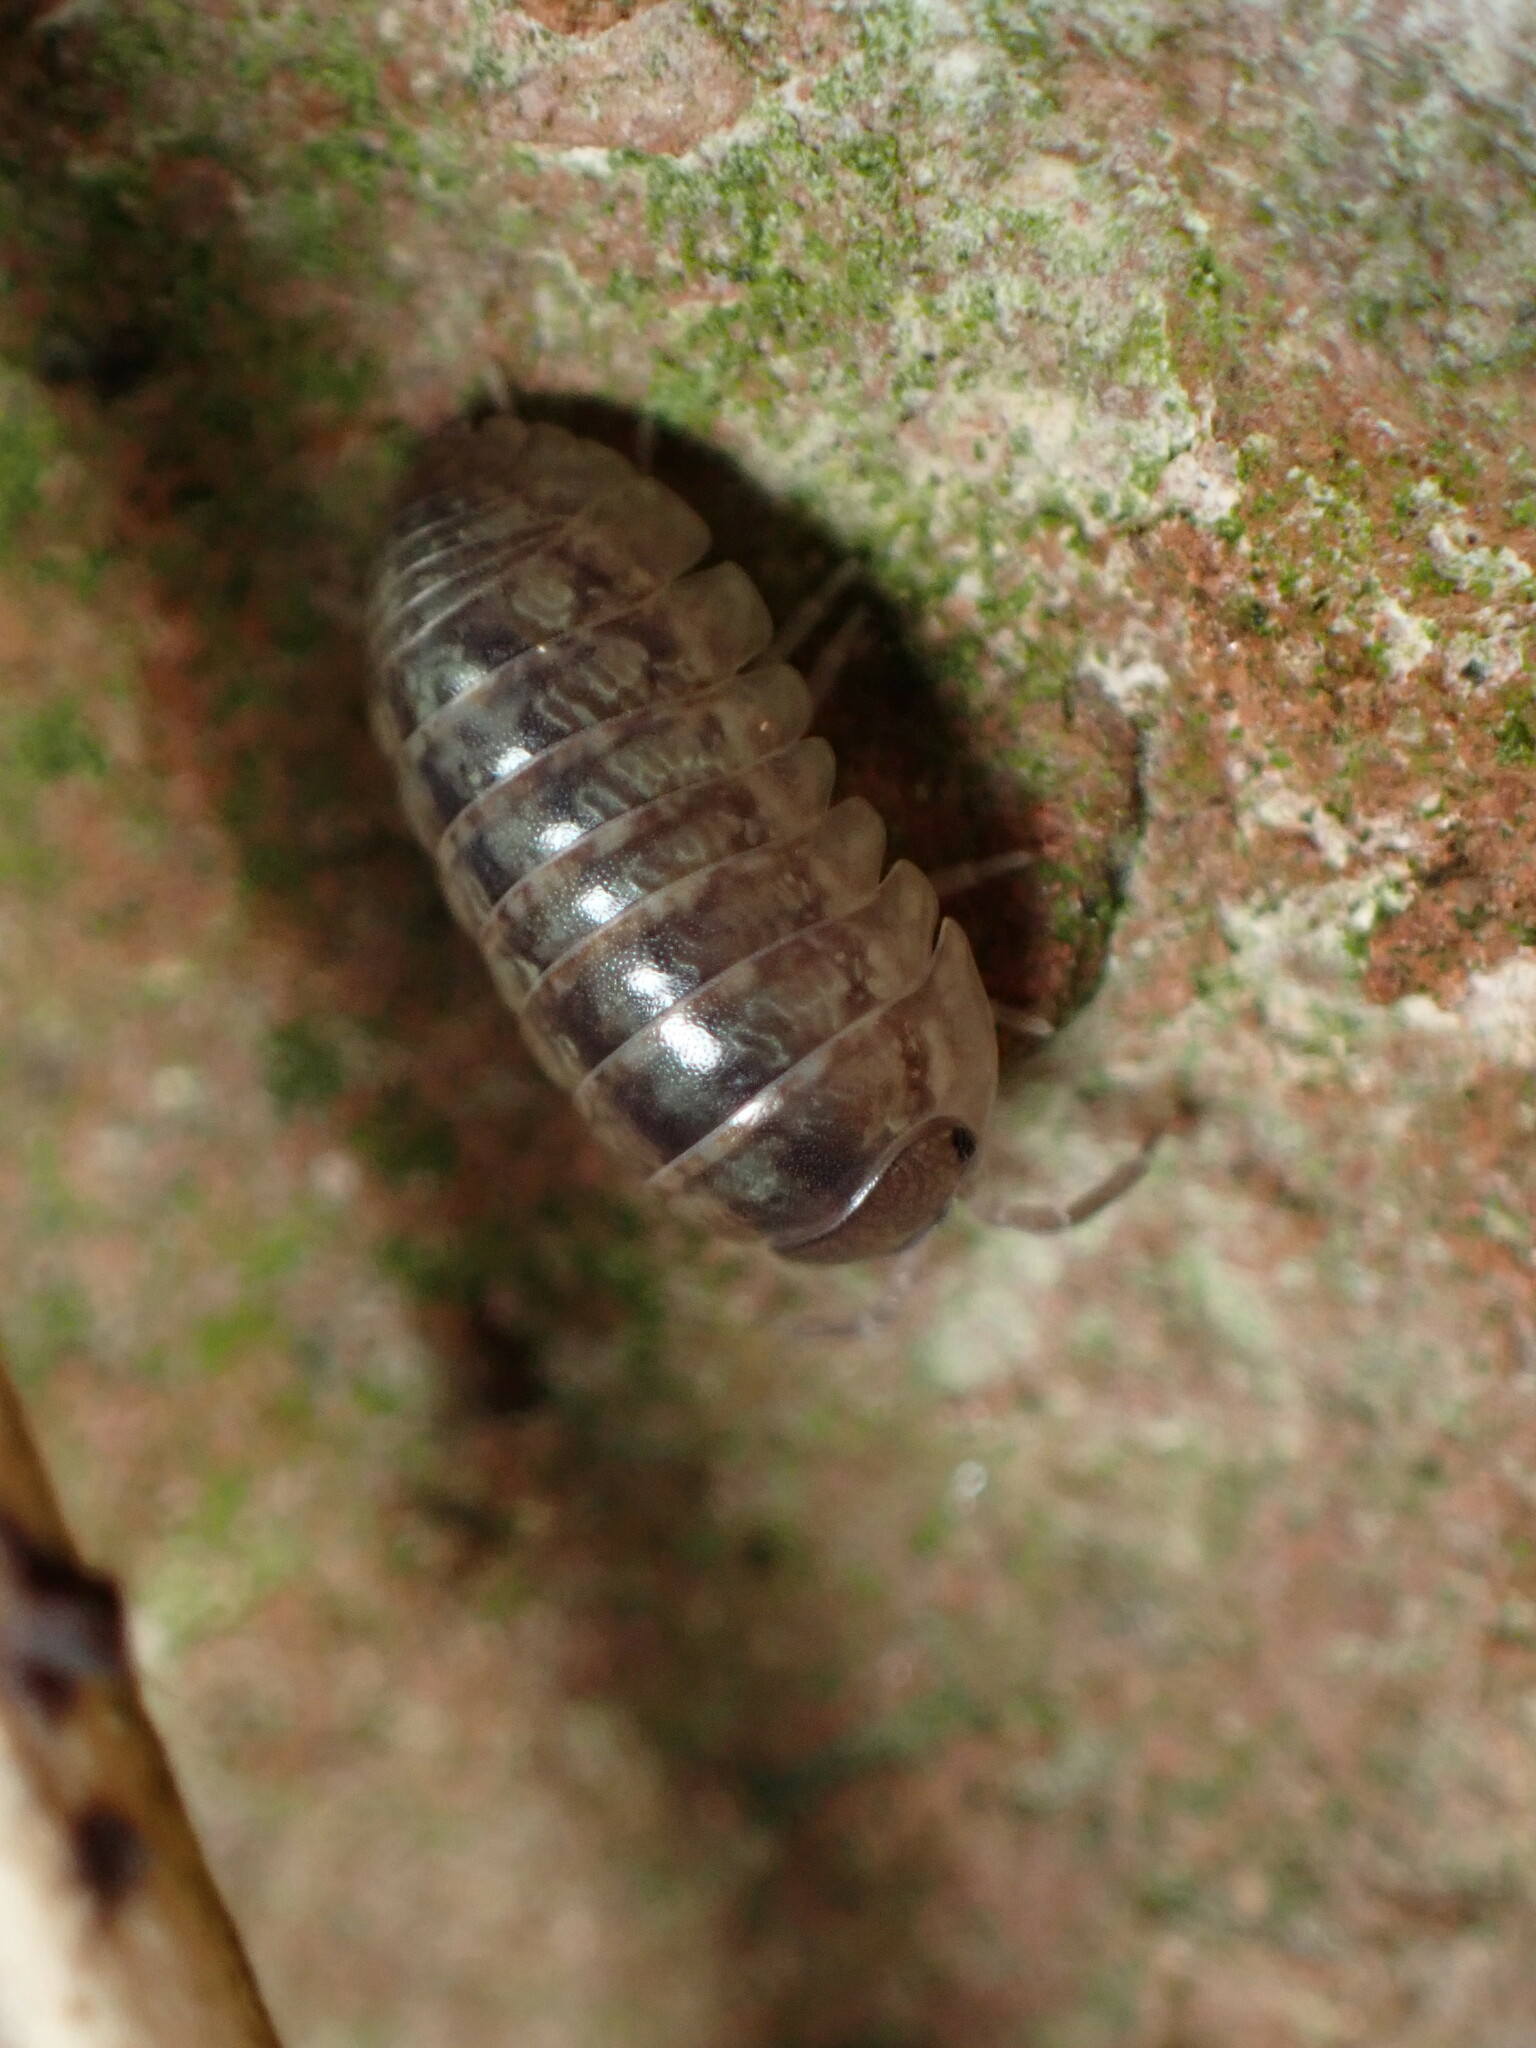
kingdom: Animalia
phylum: Arthropoda
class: Malacostraca
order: Isopoda
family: Armadillidiidae
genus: Armadillidium
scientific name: Armadillidium vulgare
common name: Common pill woodlouse
